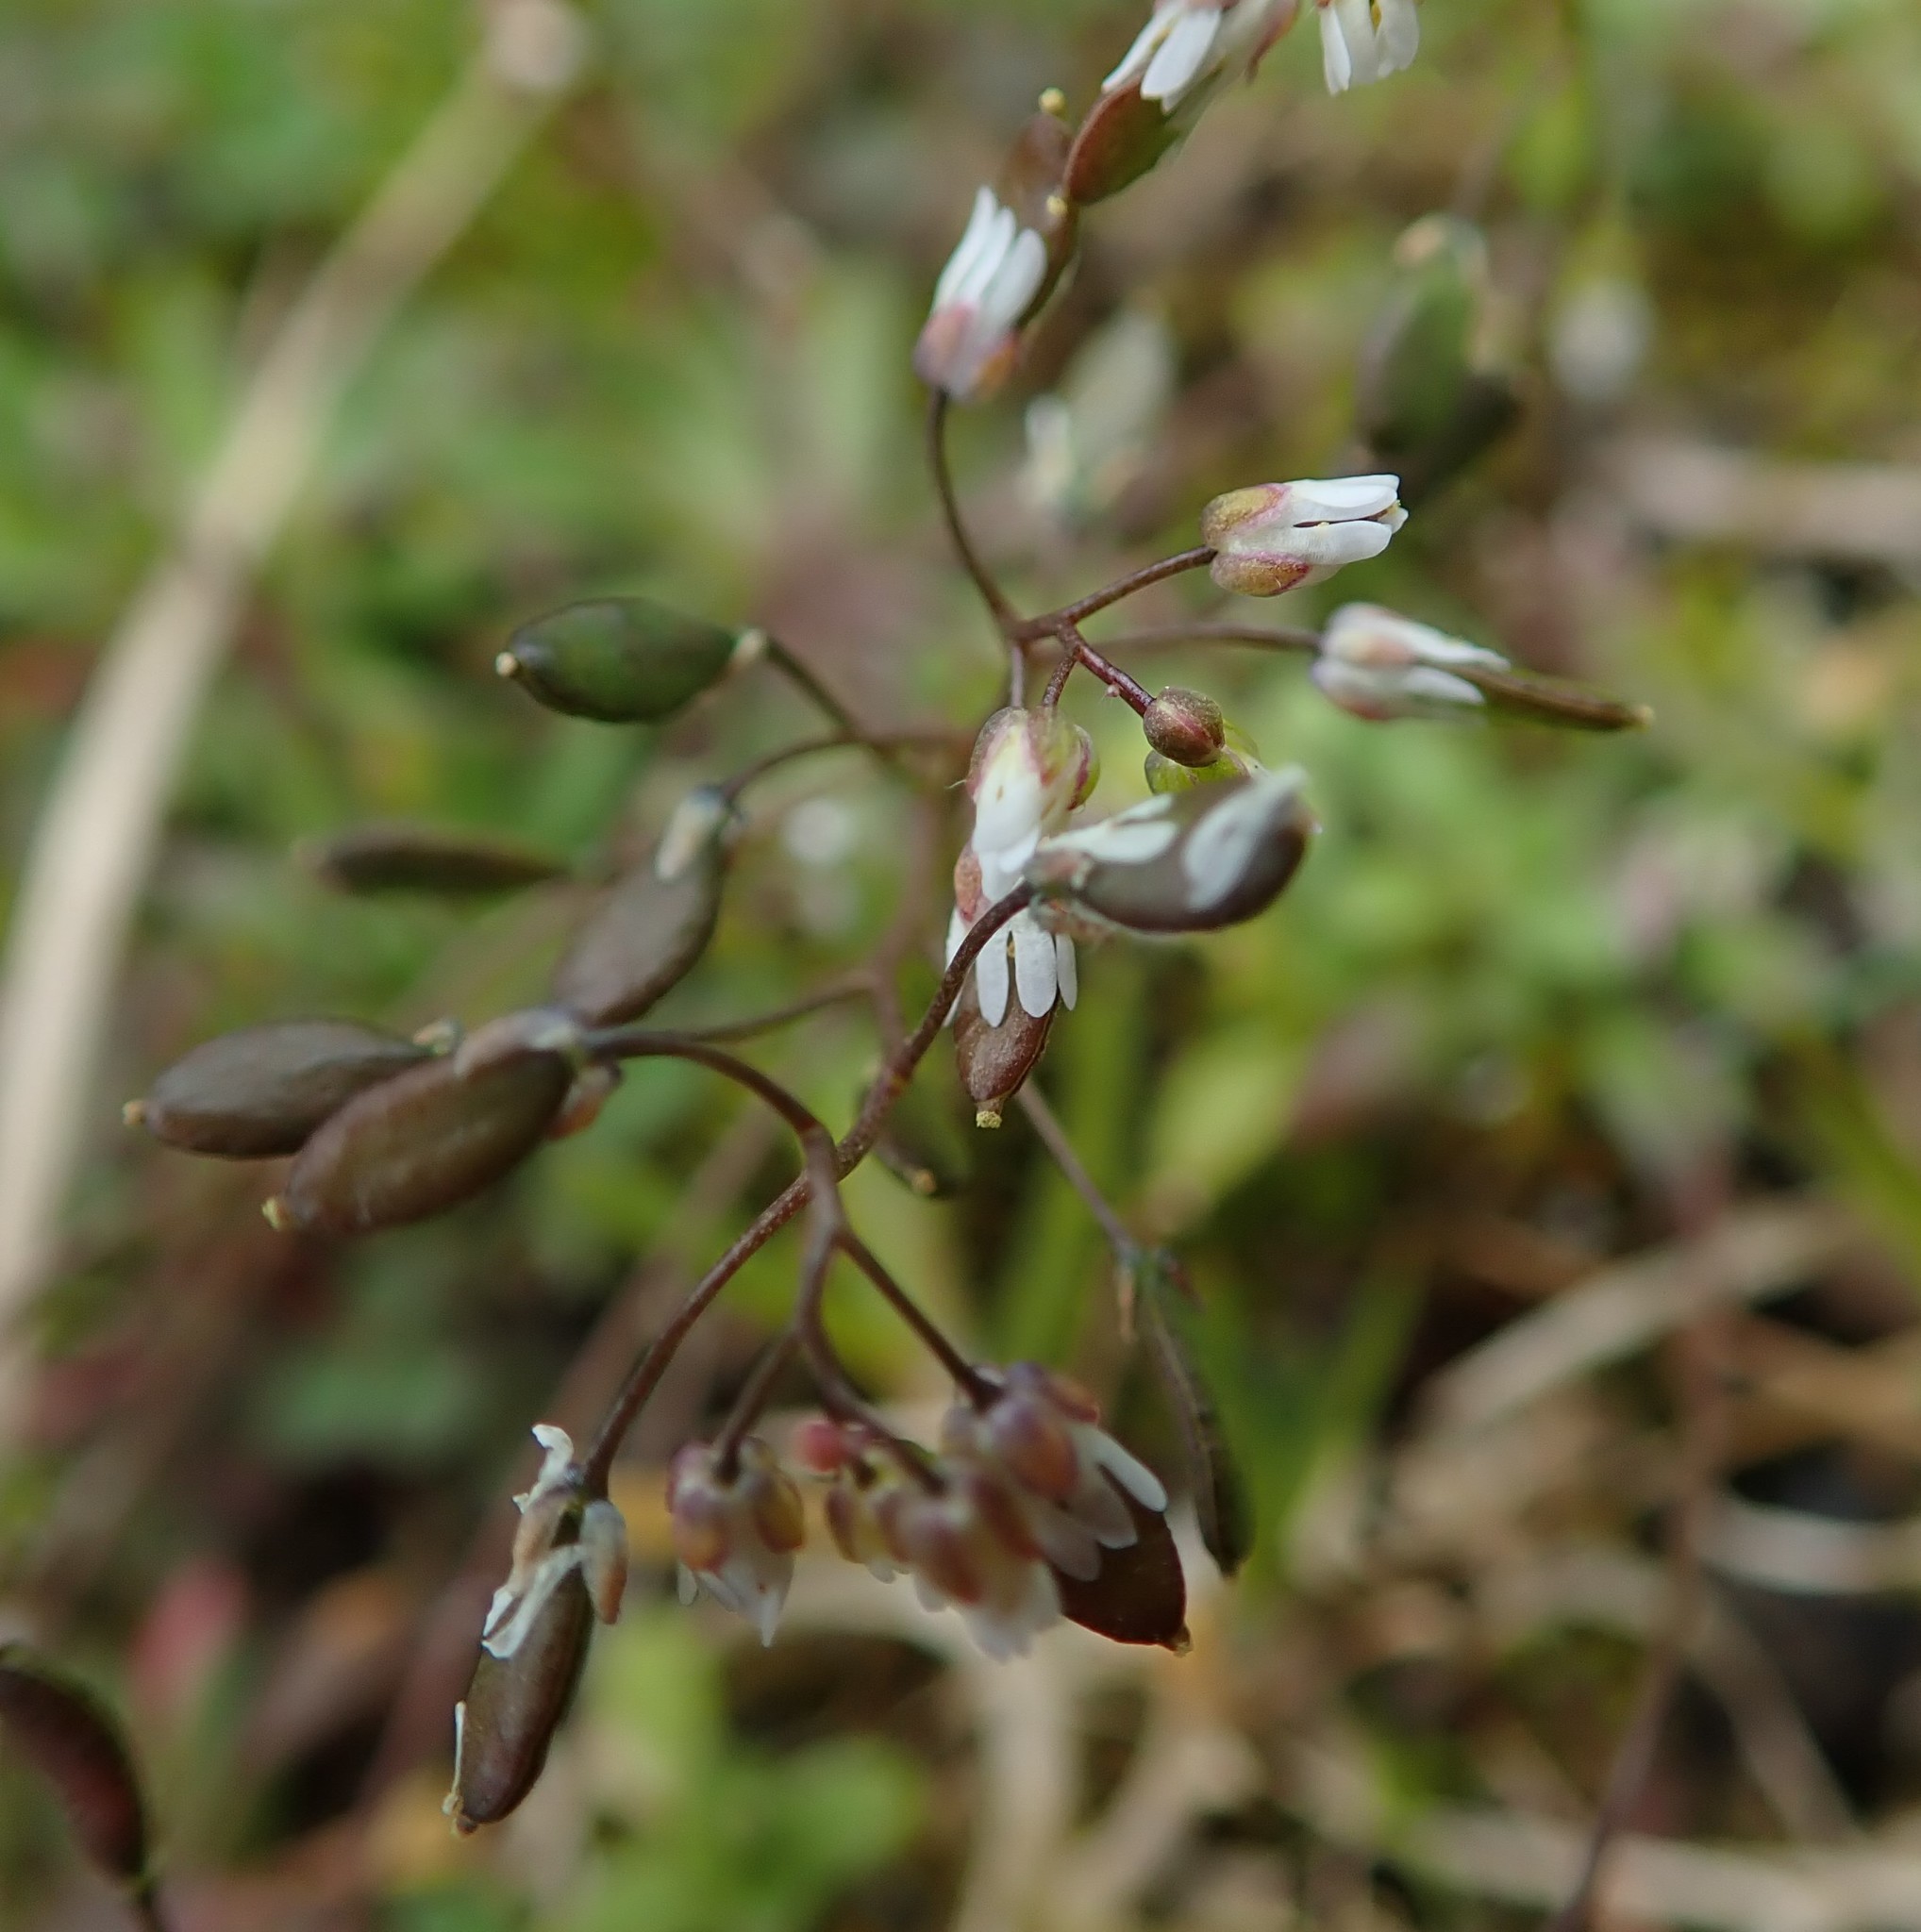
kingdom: Plantae
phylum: Tracheophyta
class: Magnoliopsida
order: Brassicales
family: Brassicaceae
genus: Draba
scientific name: Draba verna
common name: Spring draba
